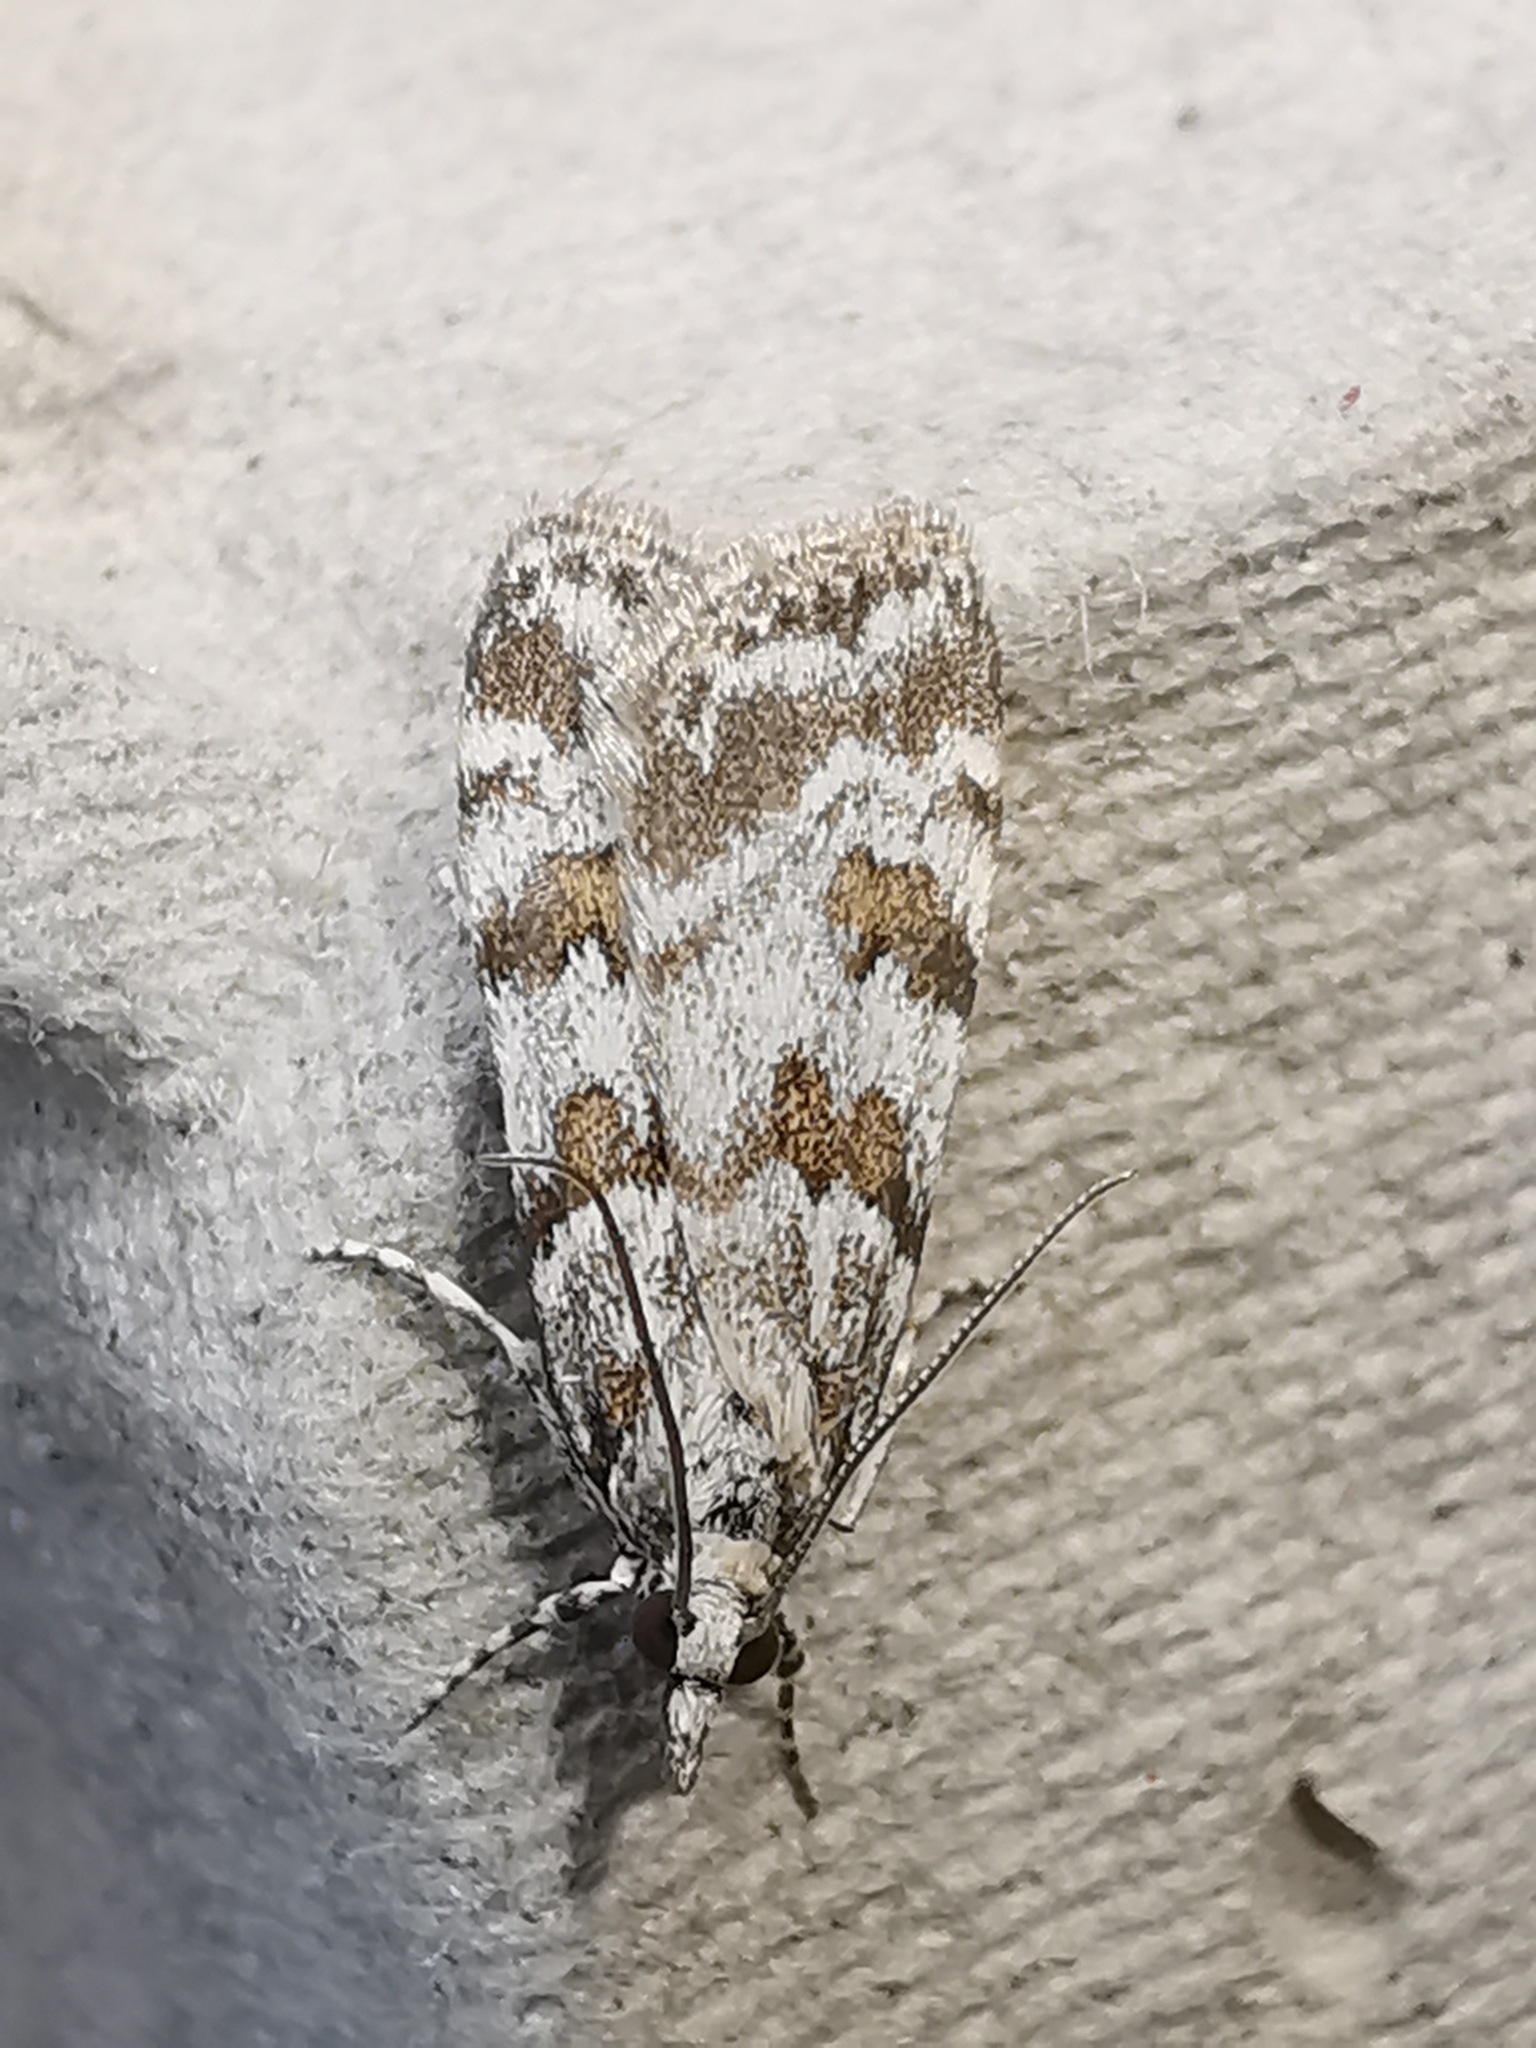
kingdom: Animalia
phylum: Arthropoda
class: Insecta
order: Lepidoptera
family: Crambidae
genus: Scoparia
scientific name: Scoparia pyralella
